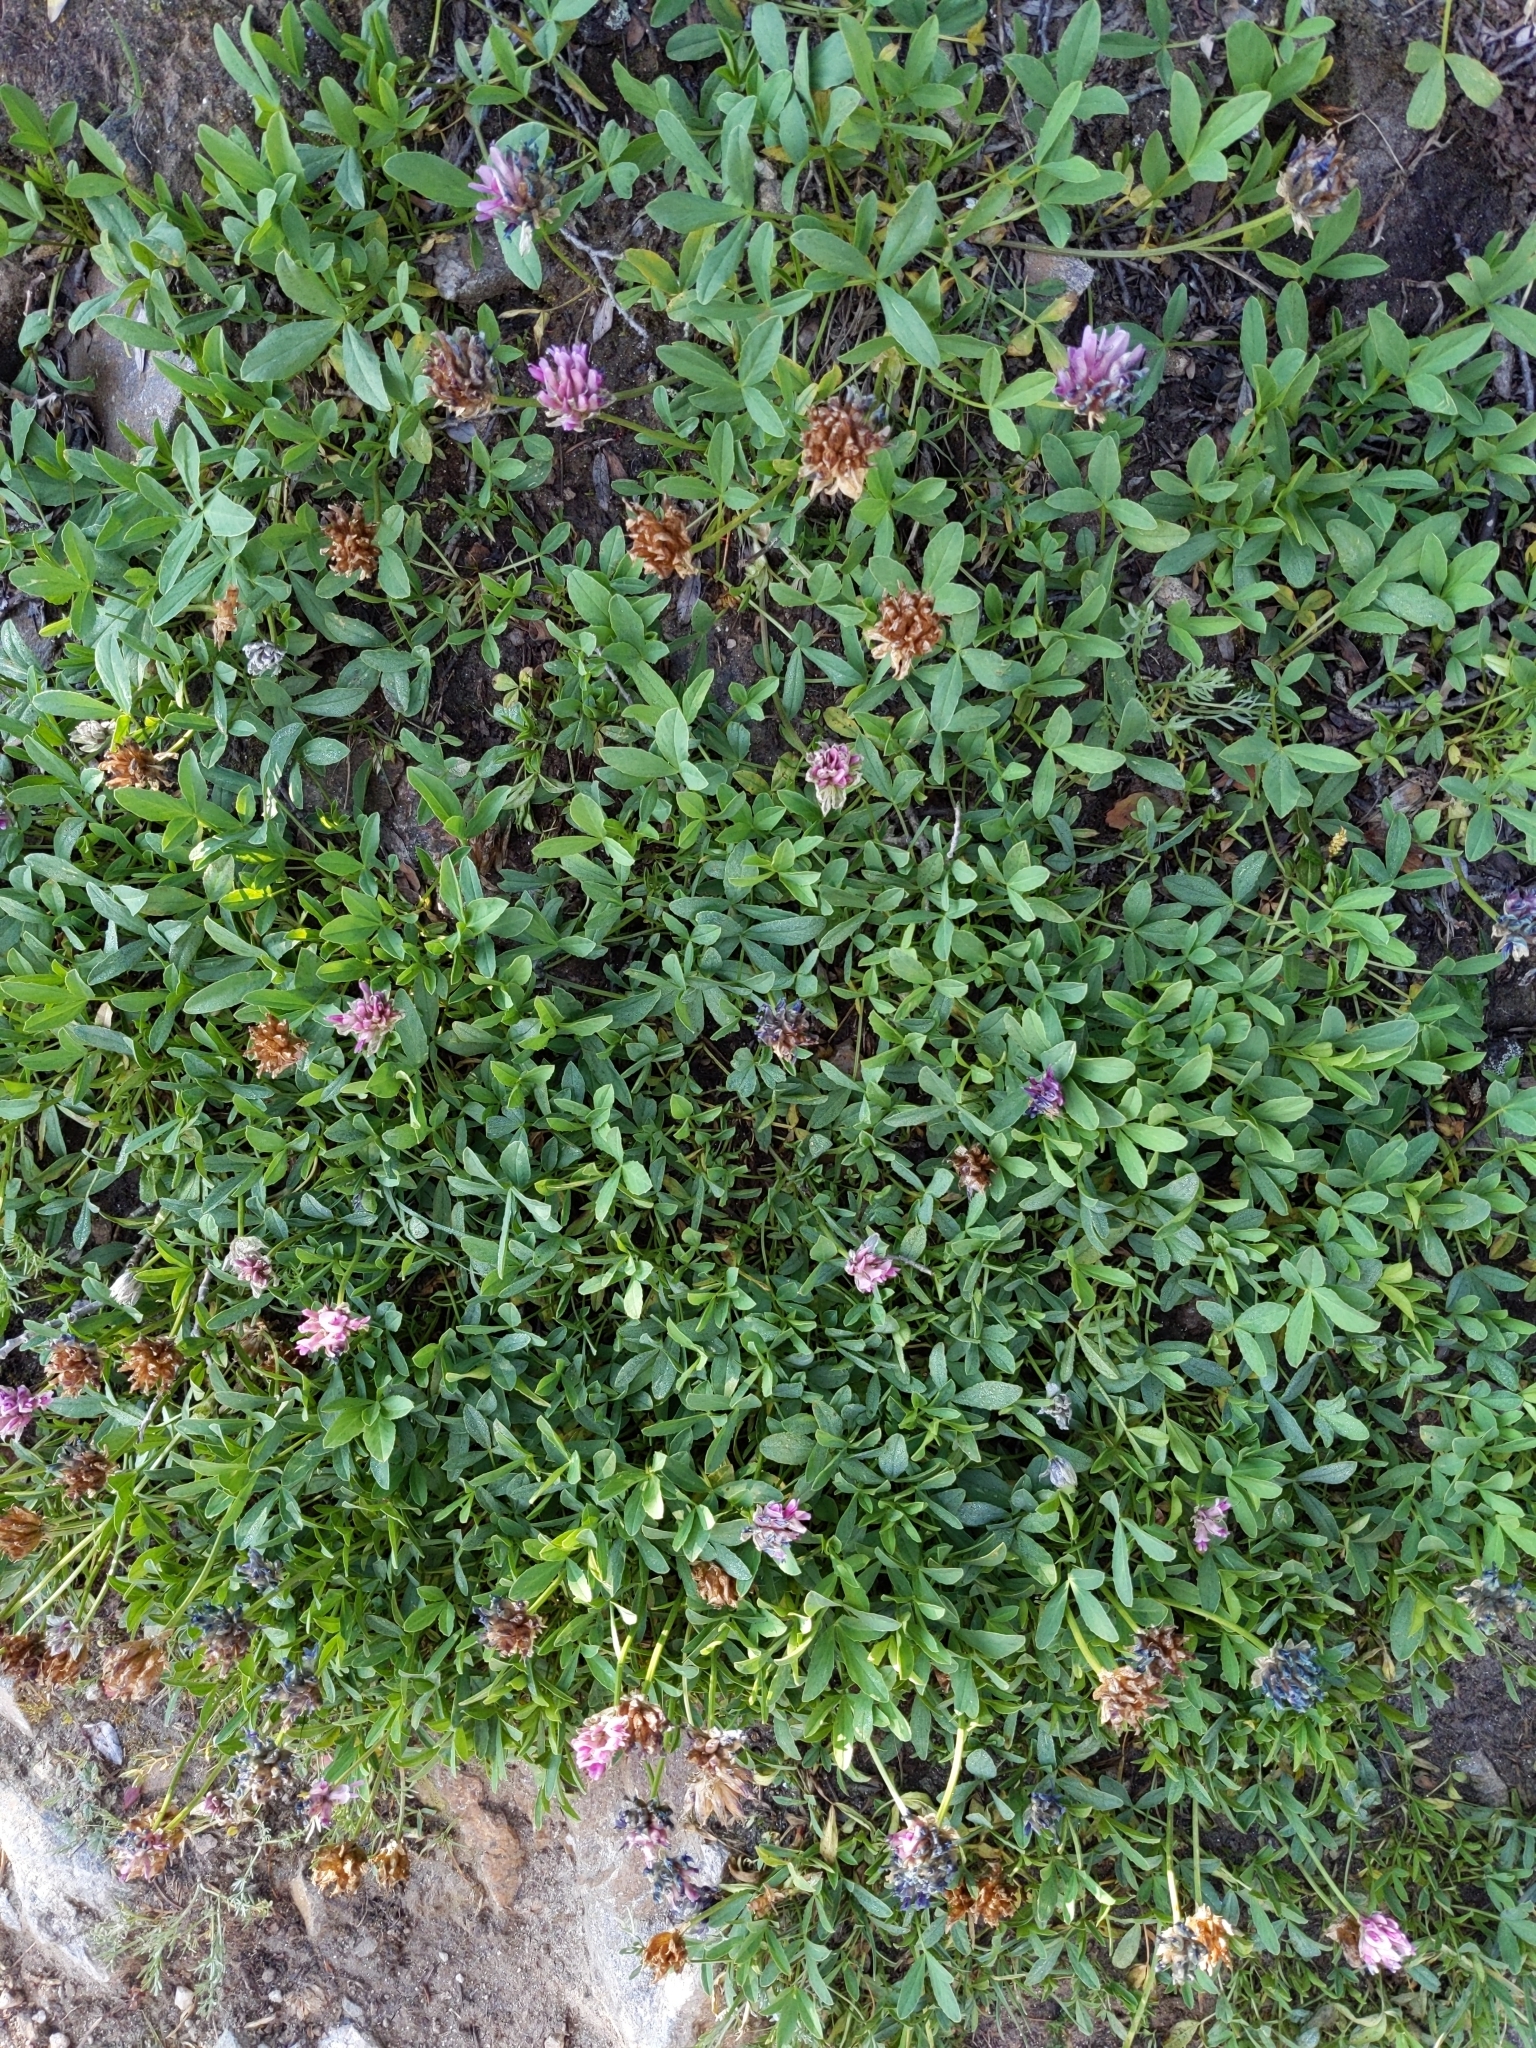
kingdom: Plantae
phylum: Tracheophyta
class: Magnoliopsida
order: Fabales
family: Fabaceae
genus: Trifolium
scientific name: Trifolium parryi
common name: Parry's clover
